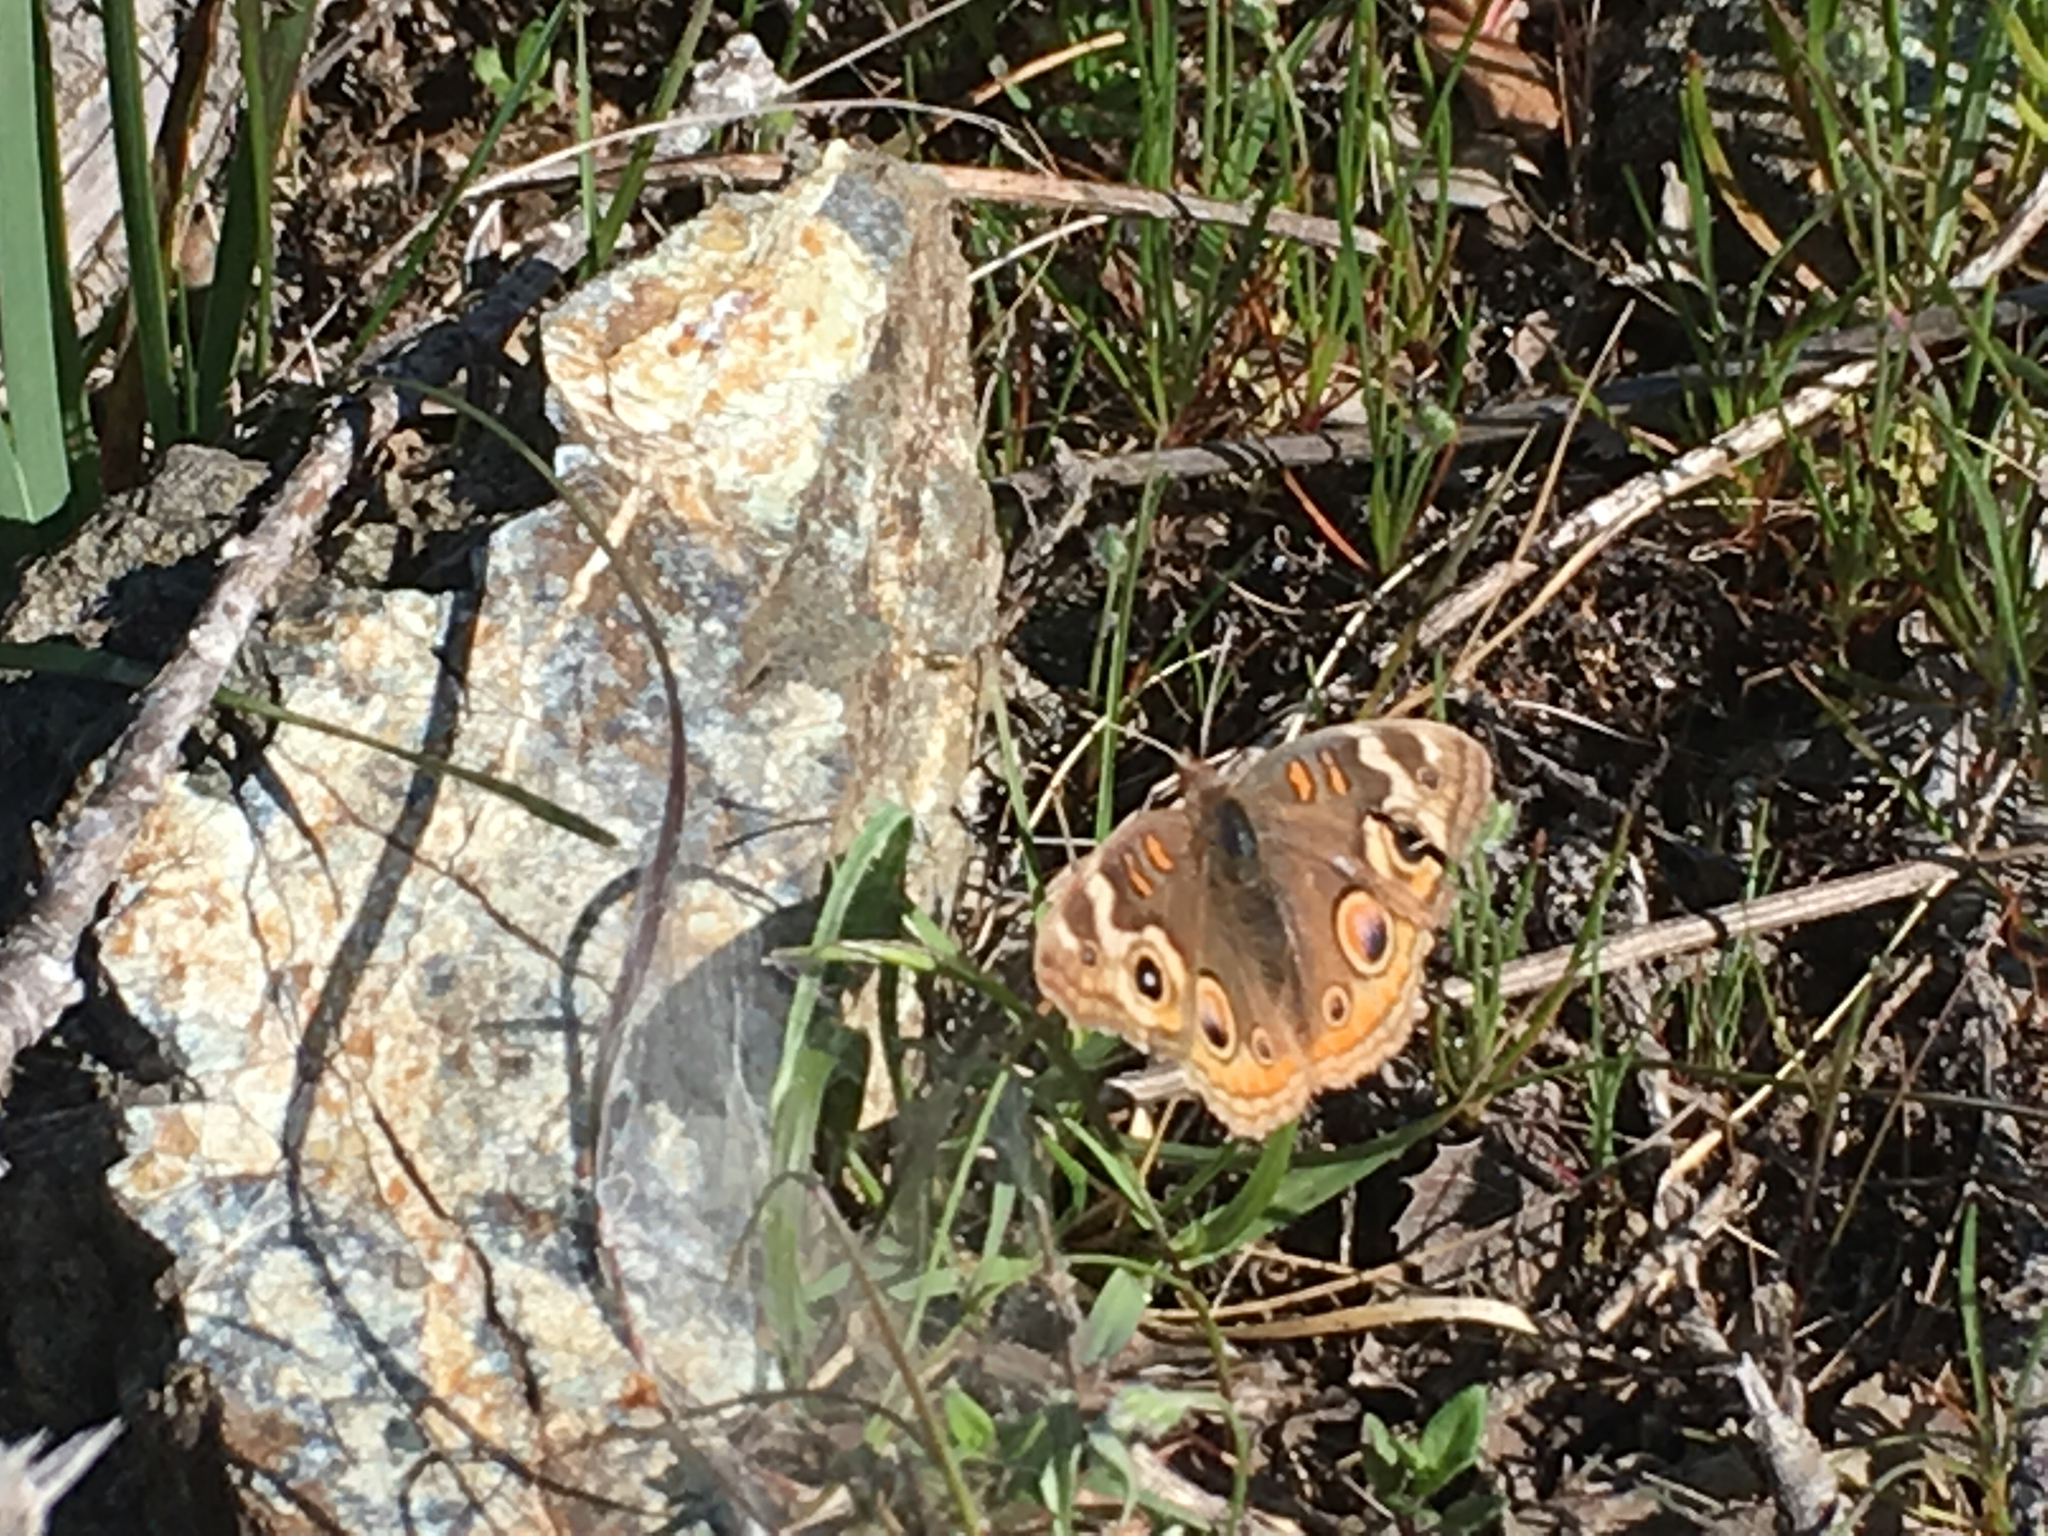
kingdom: Animalia
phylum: Arthropoda
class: Insecta
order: Lepidoptera
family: Nymphalidae
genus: Junonia
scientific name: Junonia grisea
